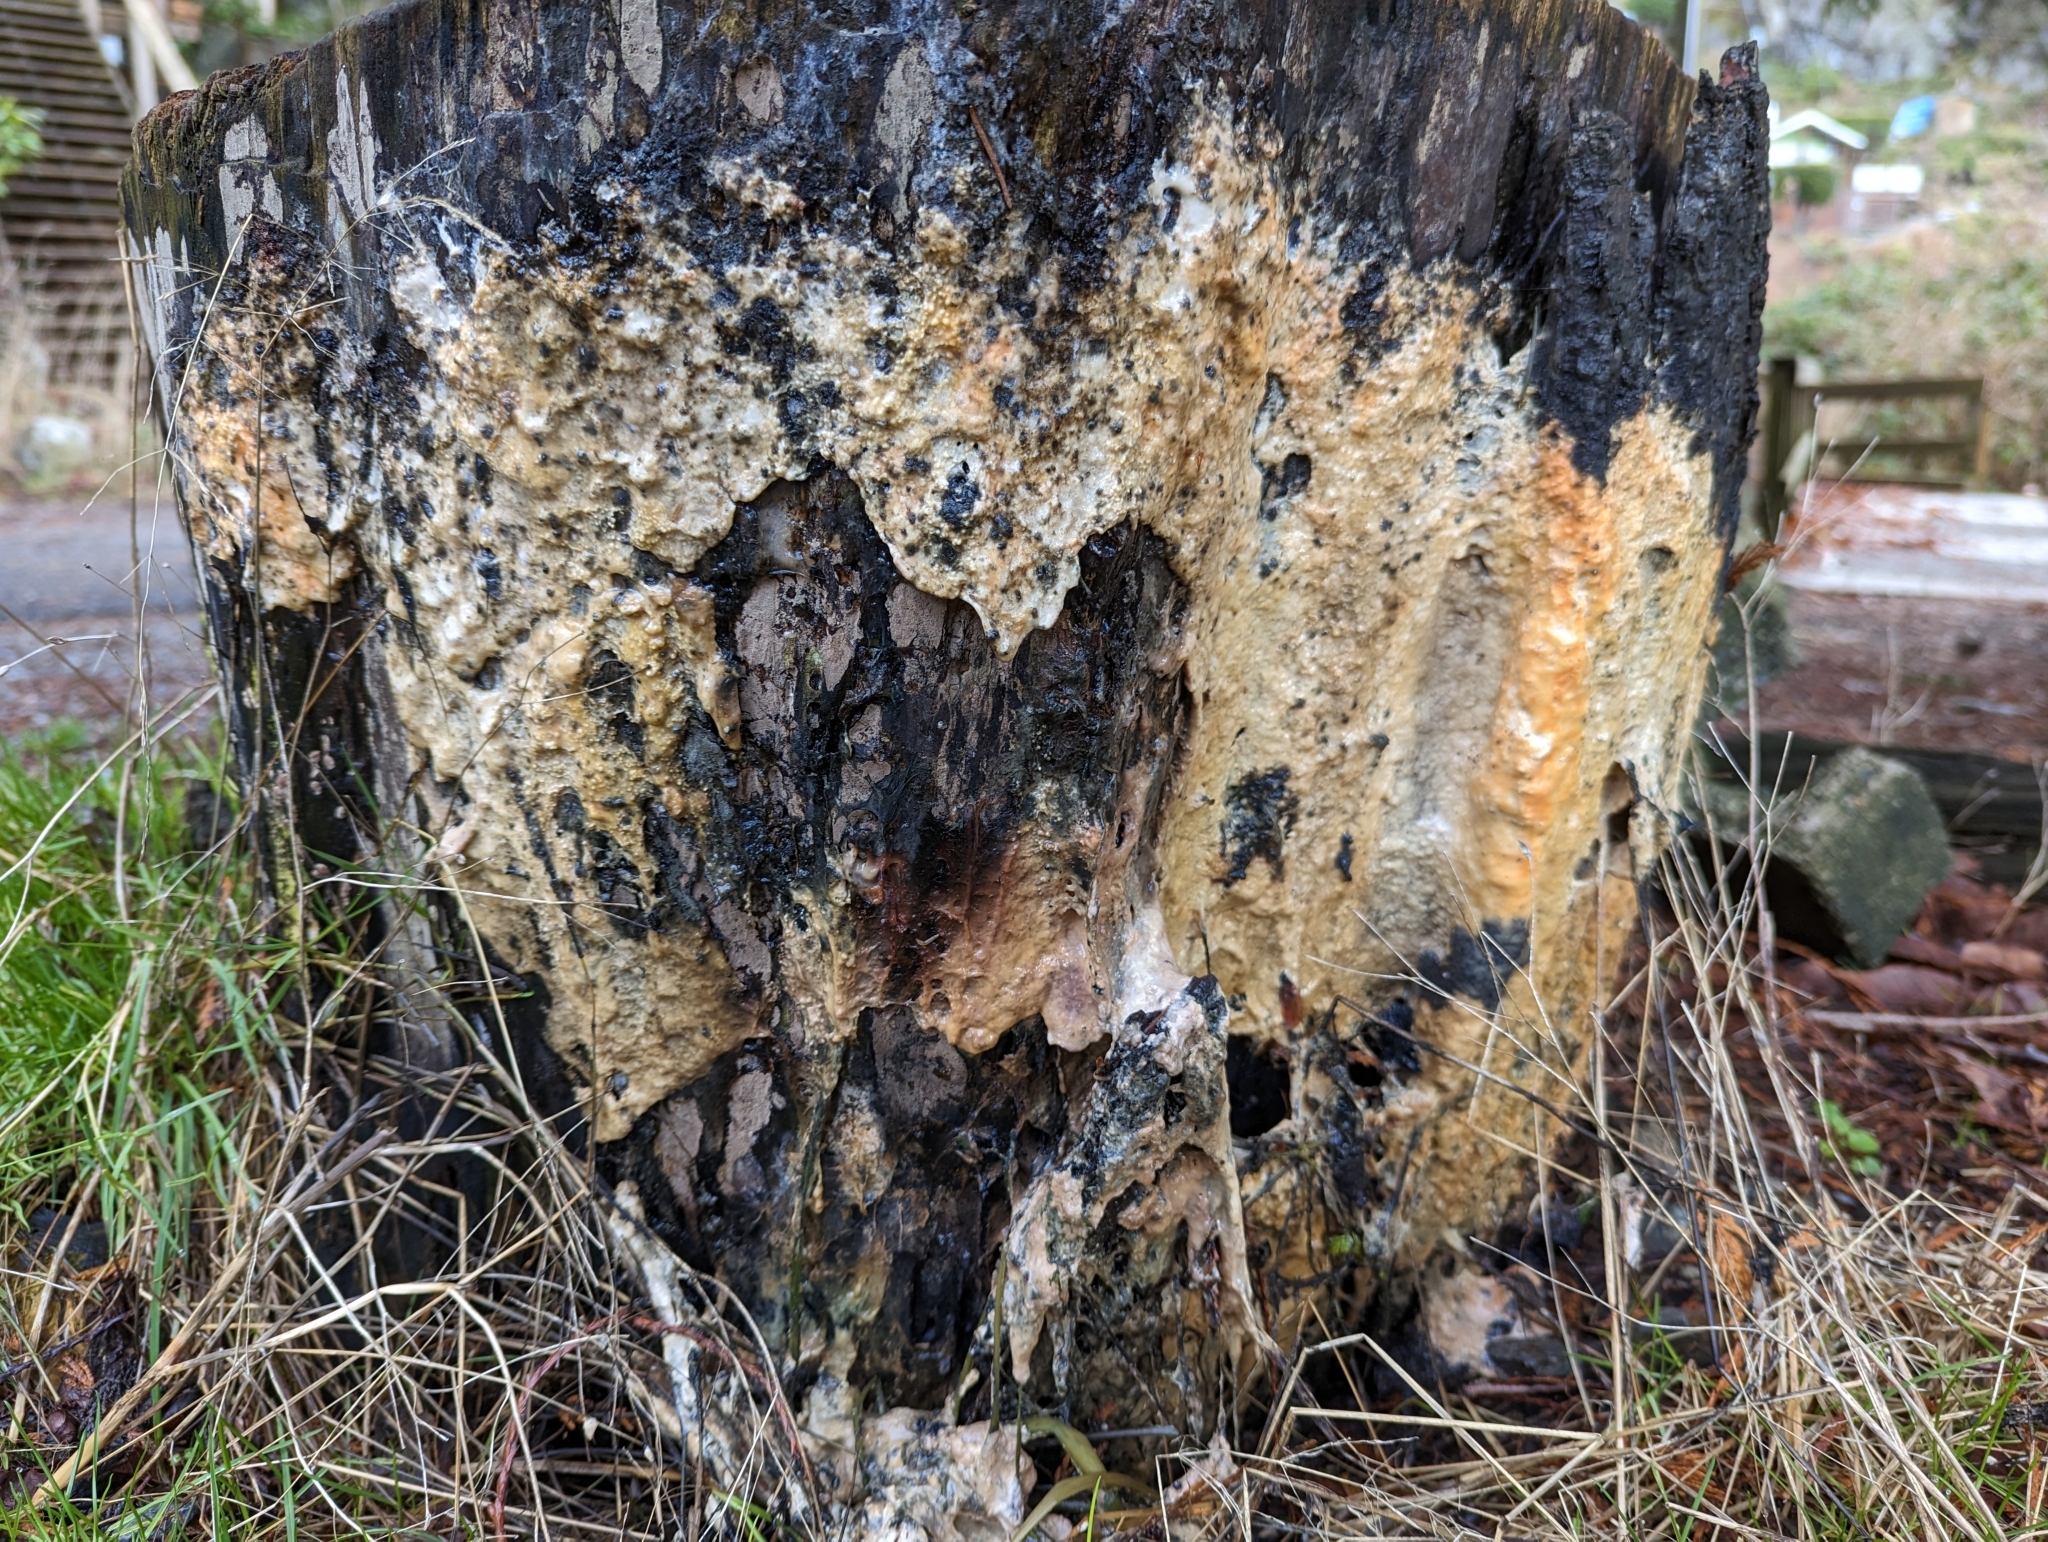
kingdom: Protozoa
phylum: Mycetozoa
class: Myxomycetes
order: Stemonitidales
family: Stemonitidaceae
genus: Brefeldia
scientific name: Brefeldia maxima
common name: Tapioca slime mold
